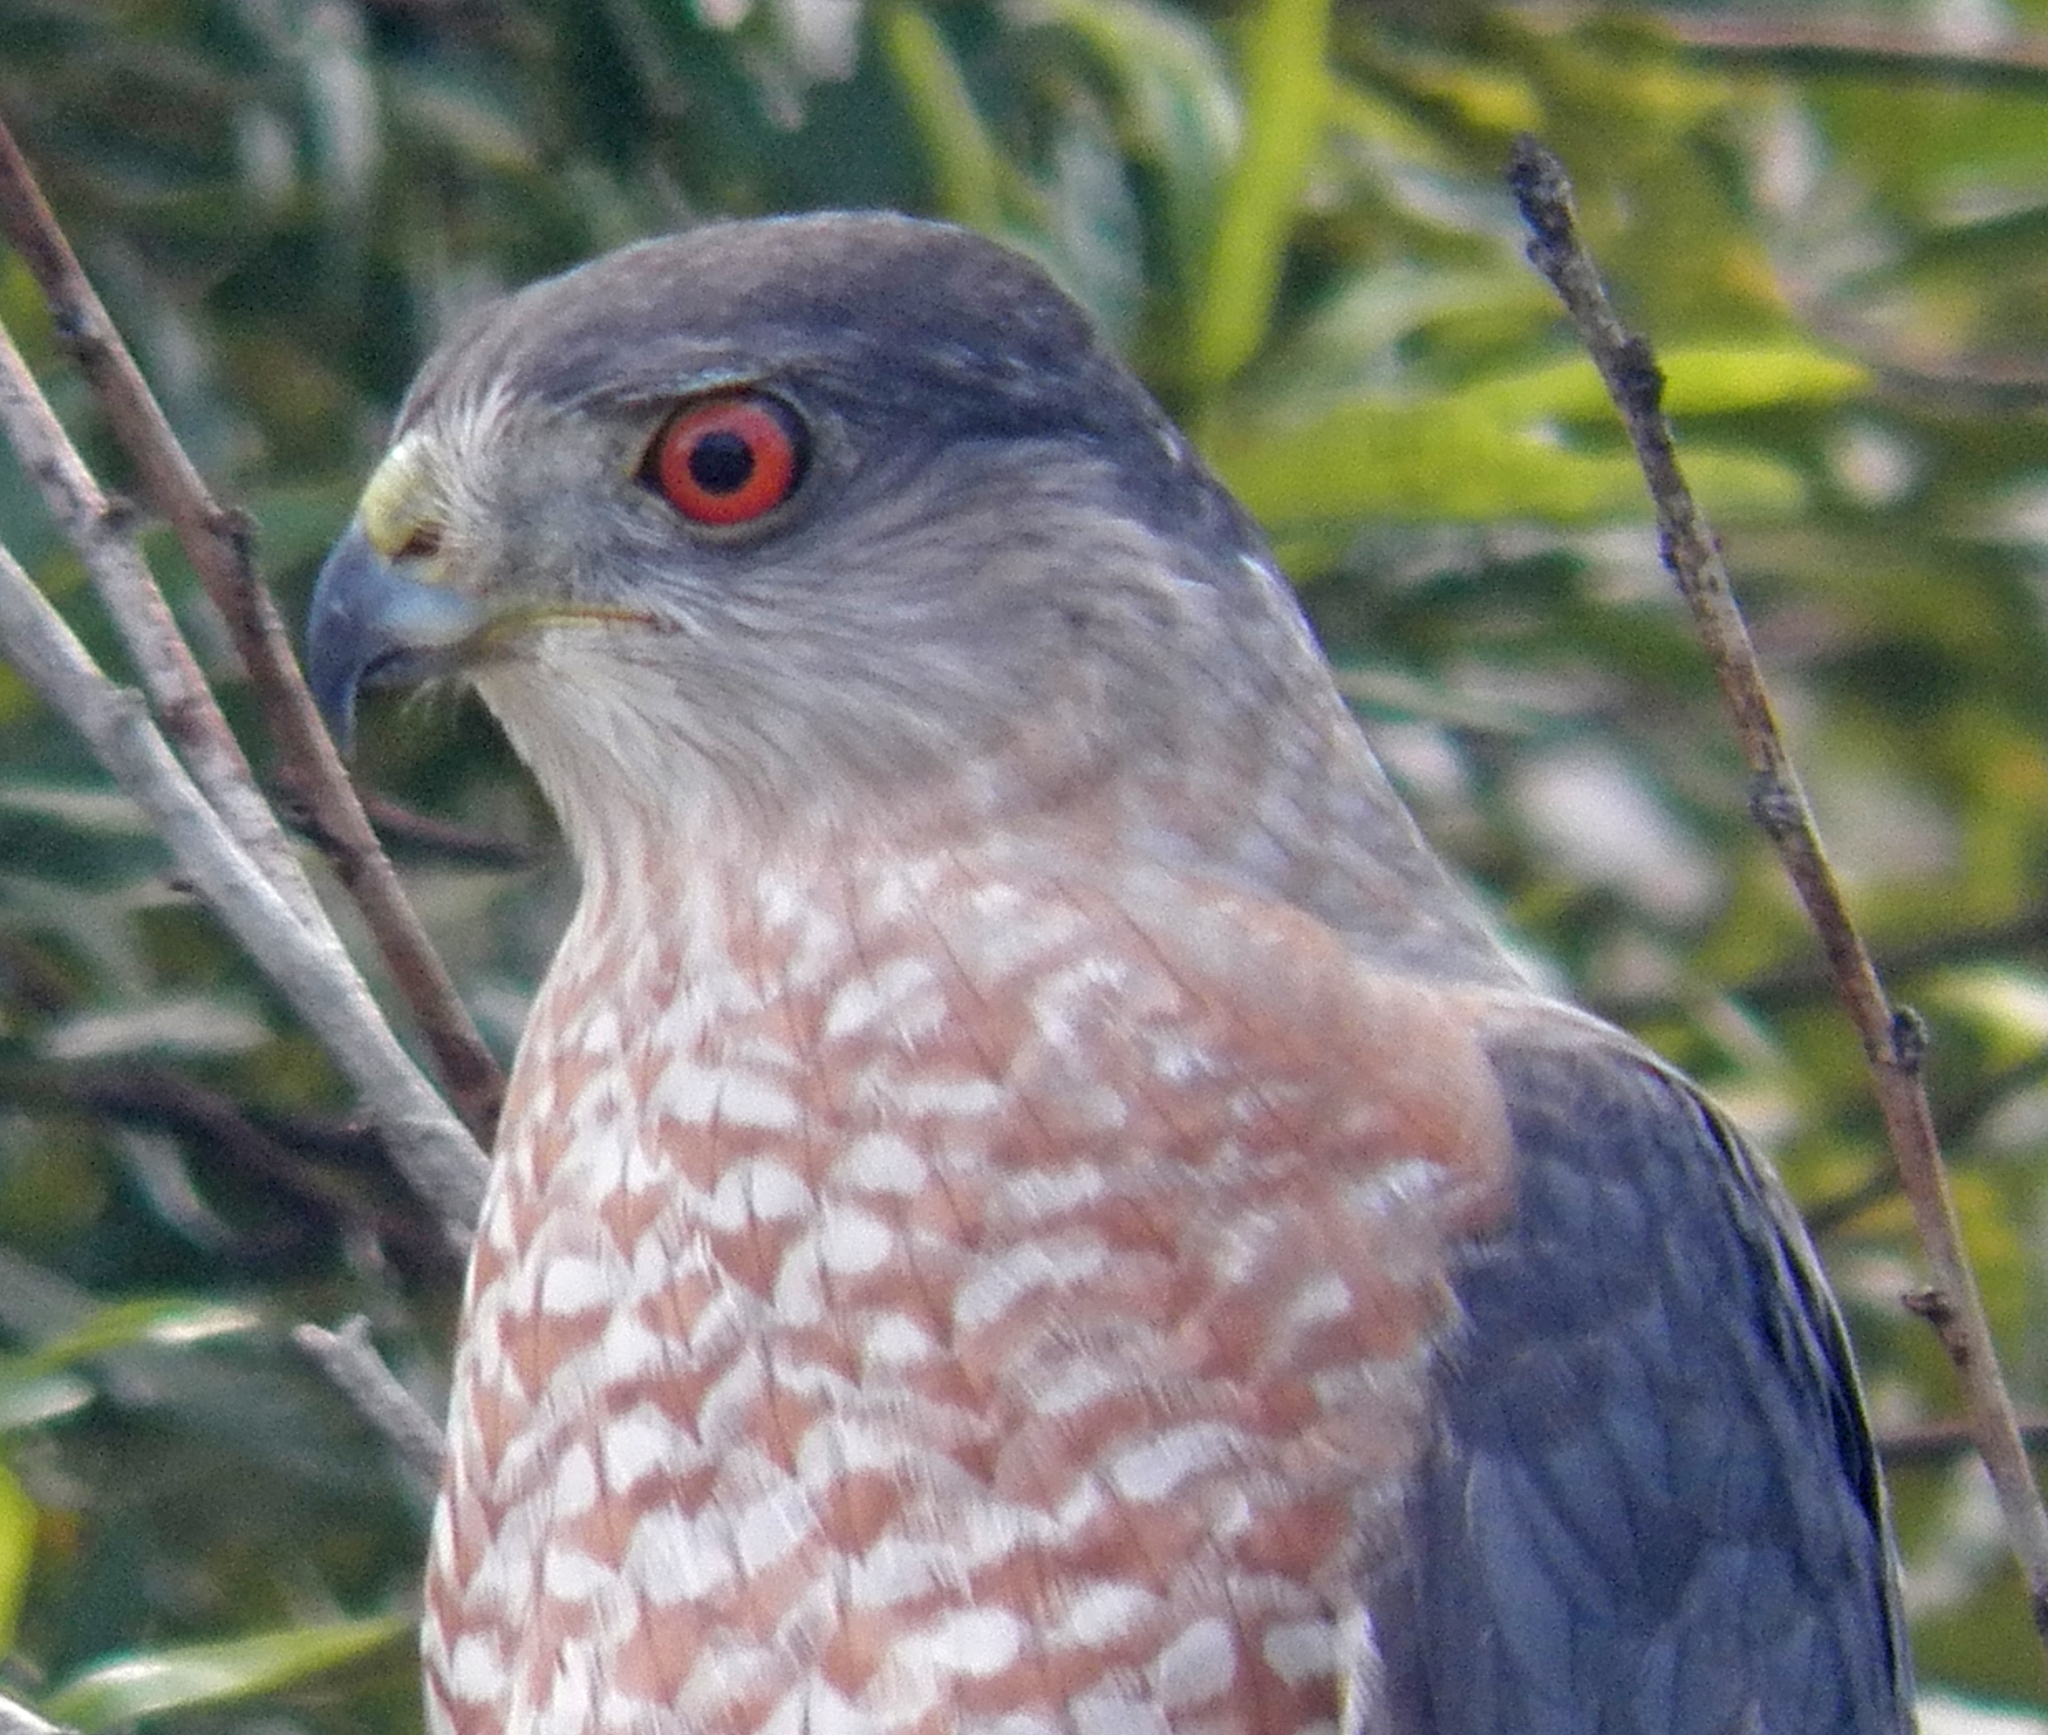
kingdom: Animalia
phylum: Chordata
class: Aves
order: Accipitriformes
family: Accipitridae
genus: Accipiter
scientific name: Accipiter cooperii
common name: Cooper's hawk
